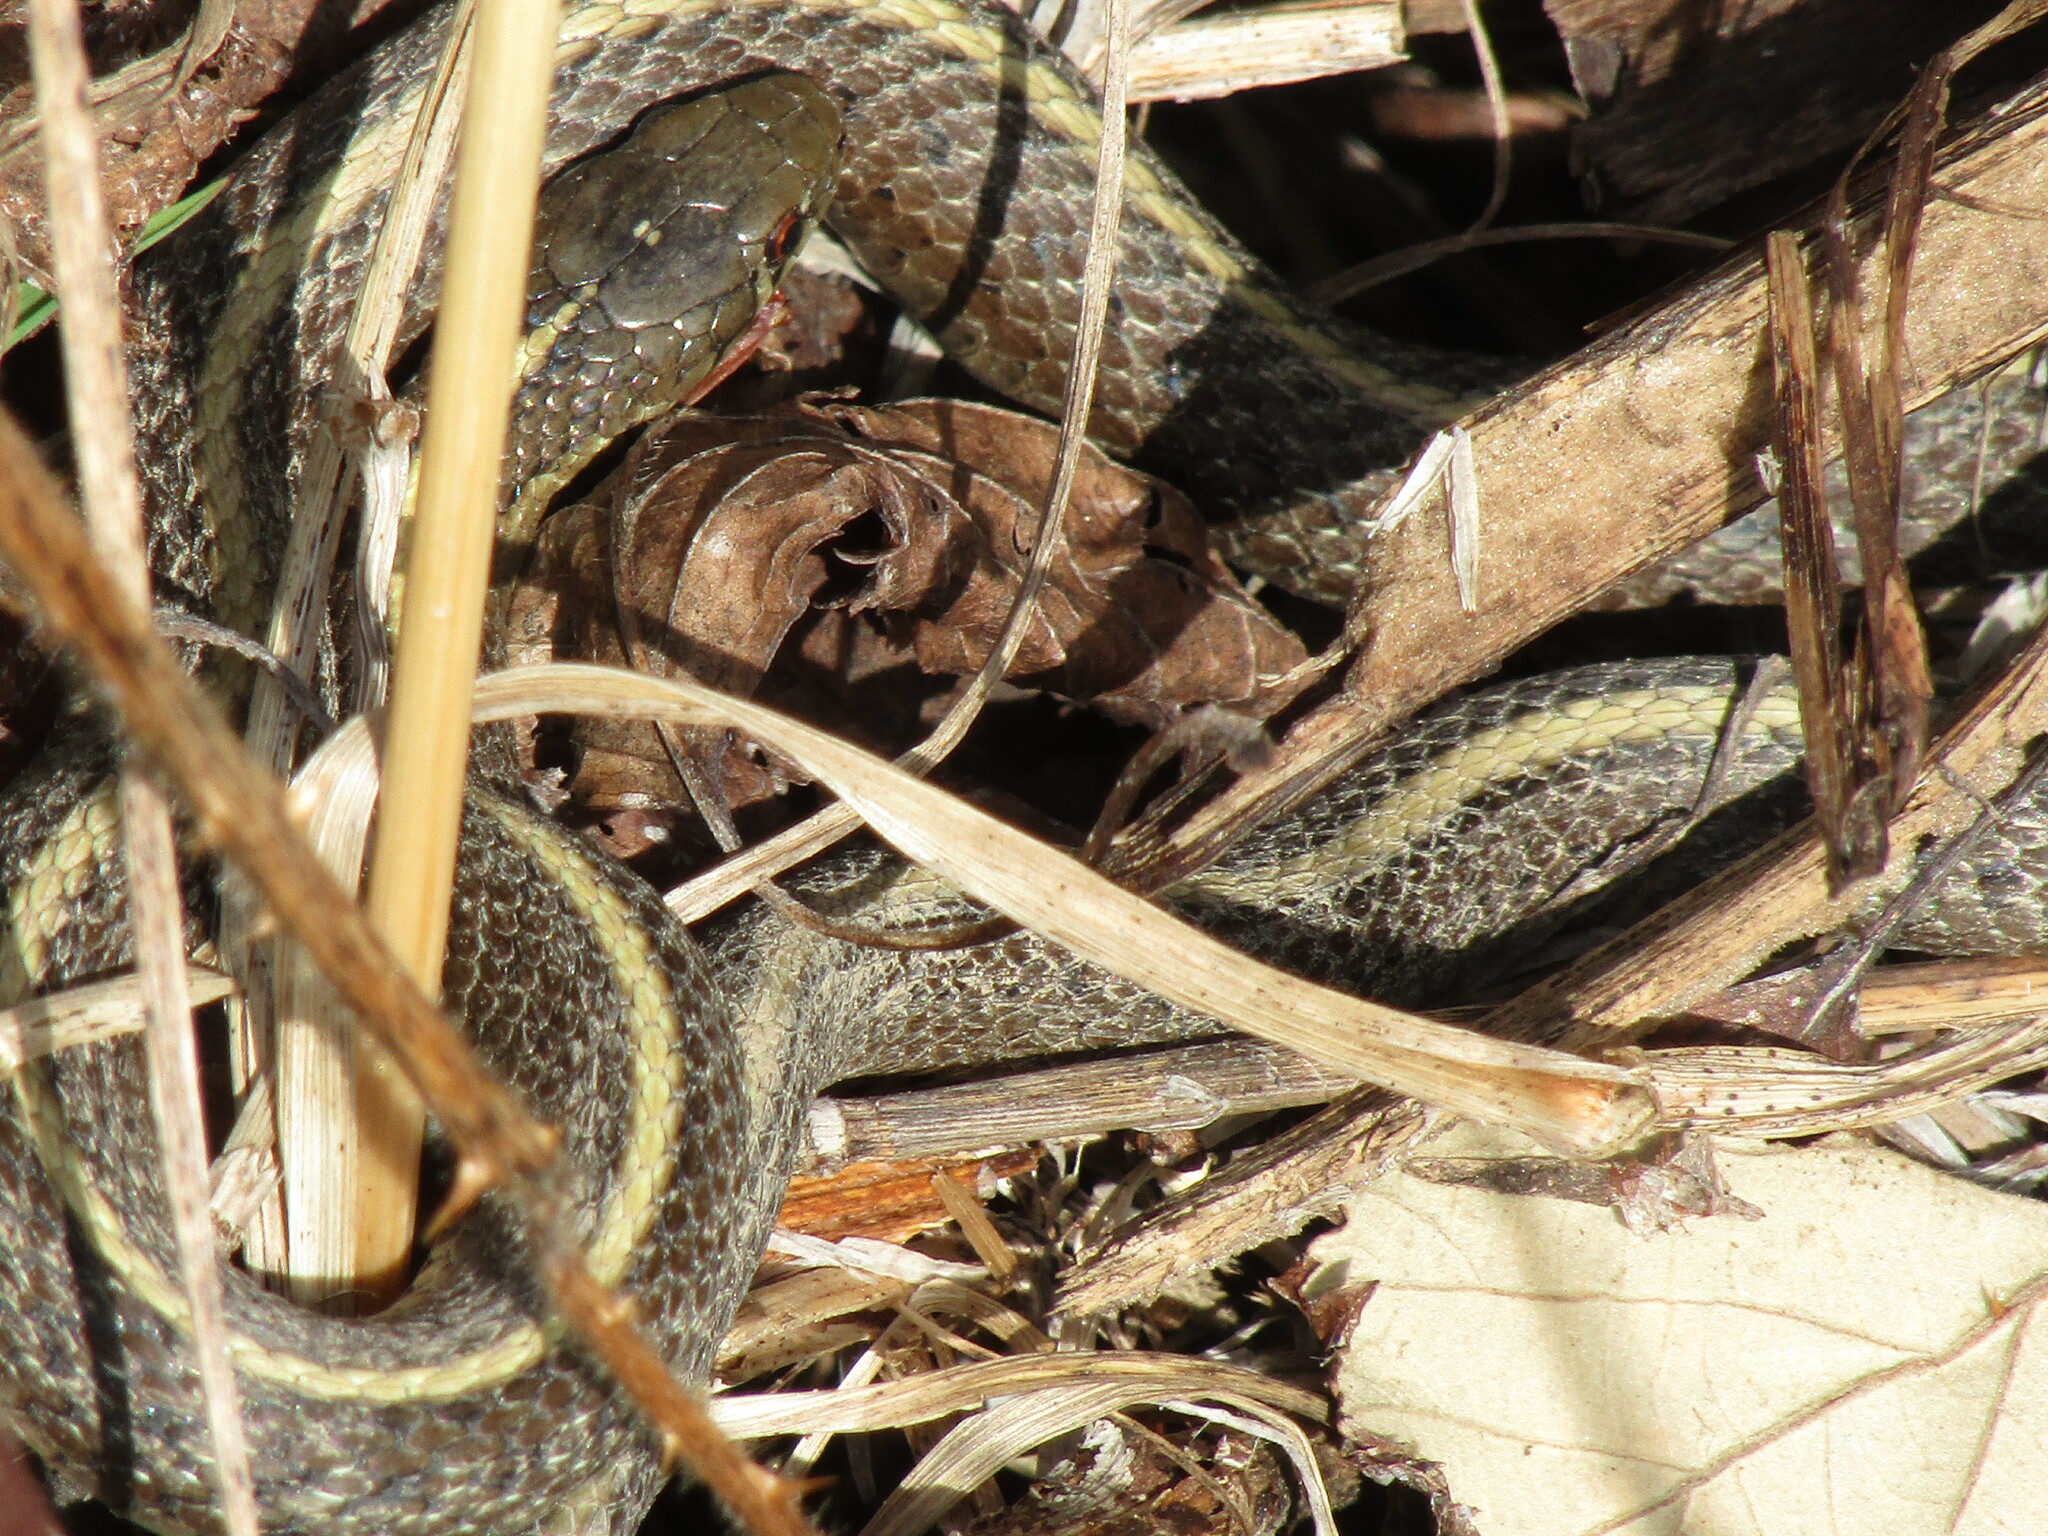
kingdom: Animalia
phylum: Chordata
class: Squamata
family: Colubridae
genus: Thamnophis
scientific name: Thamnophis ordinoides
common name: Northwestern garter snake
